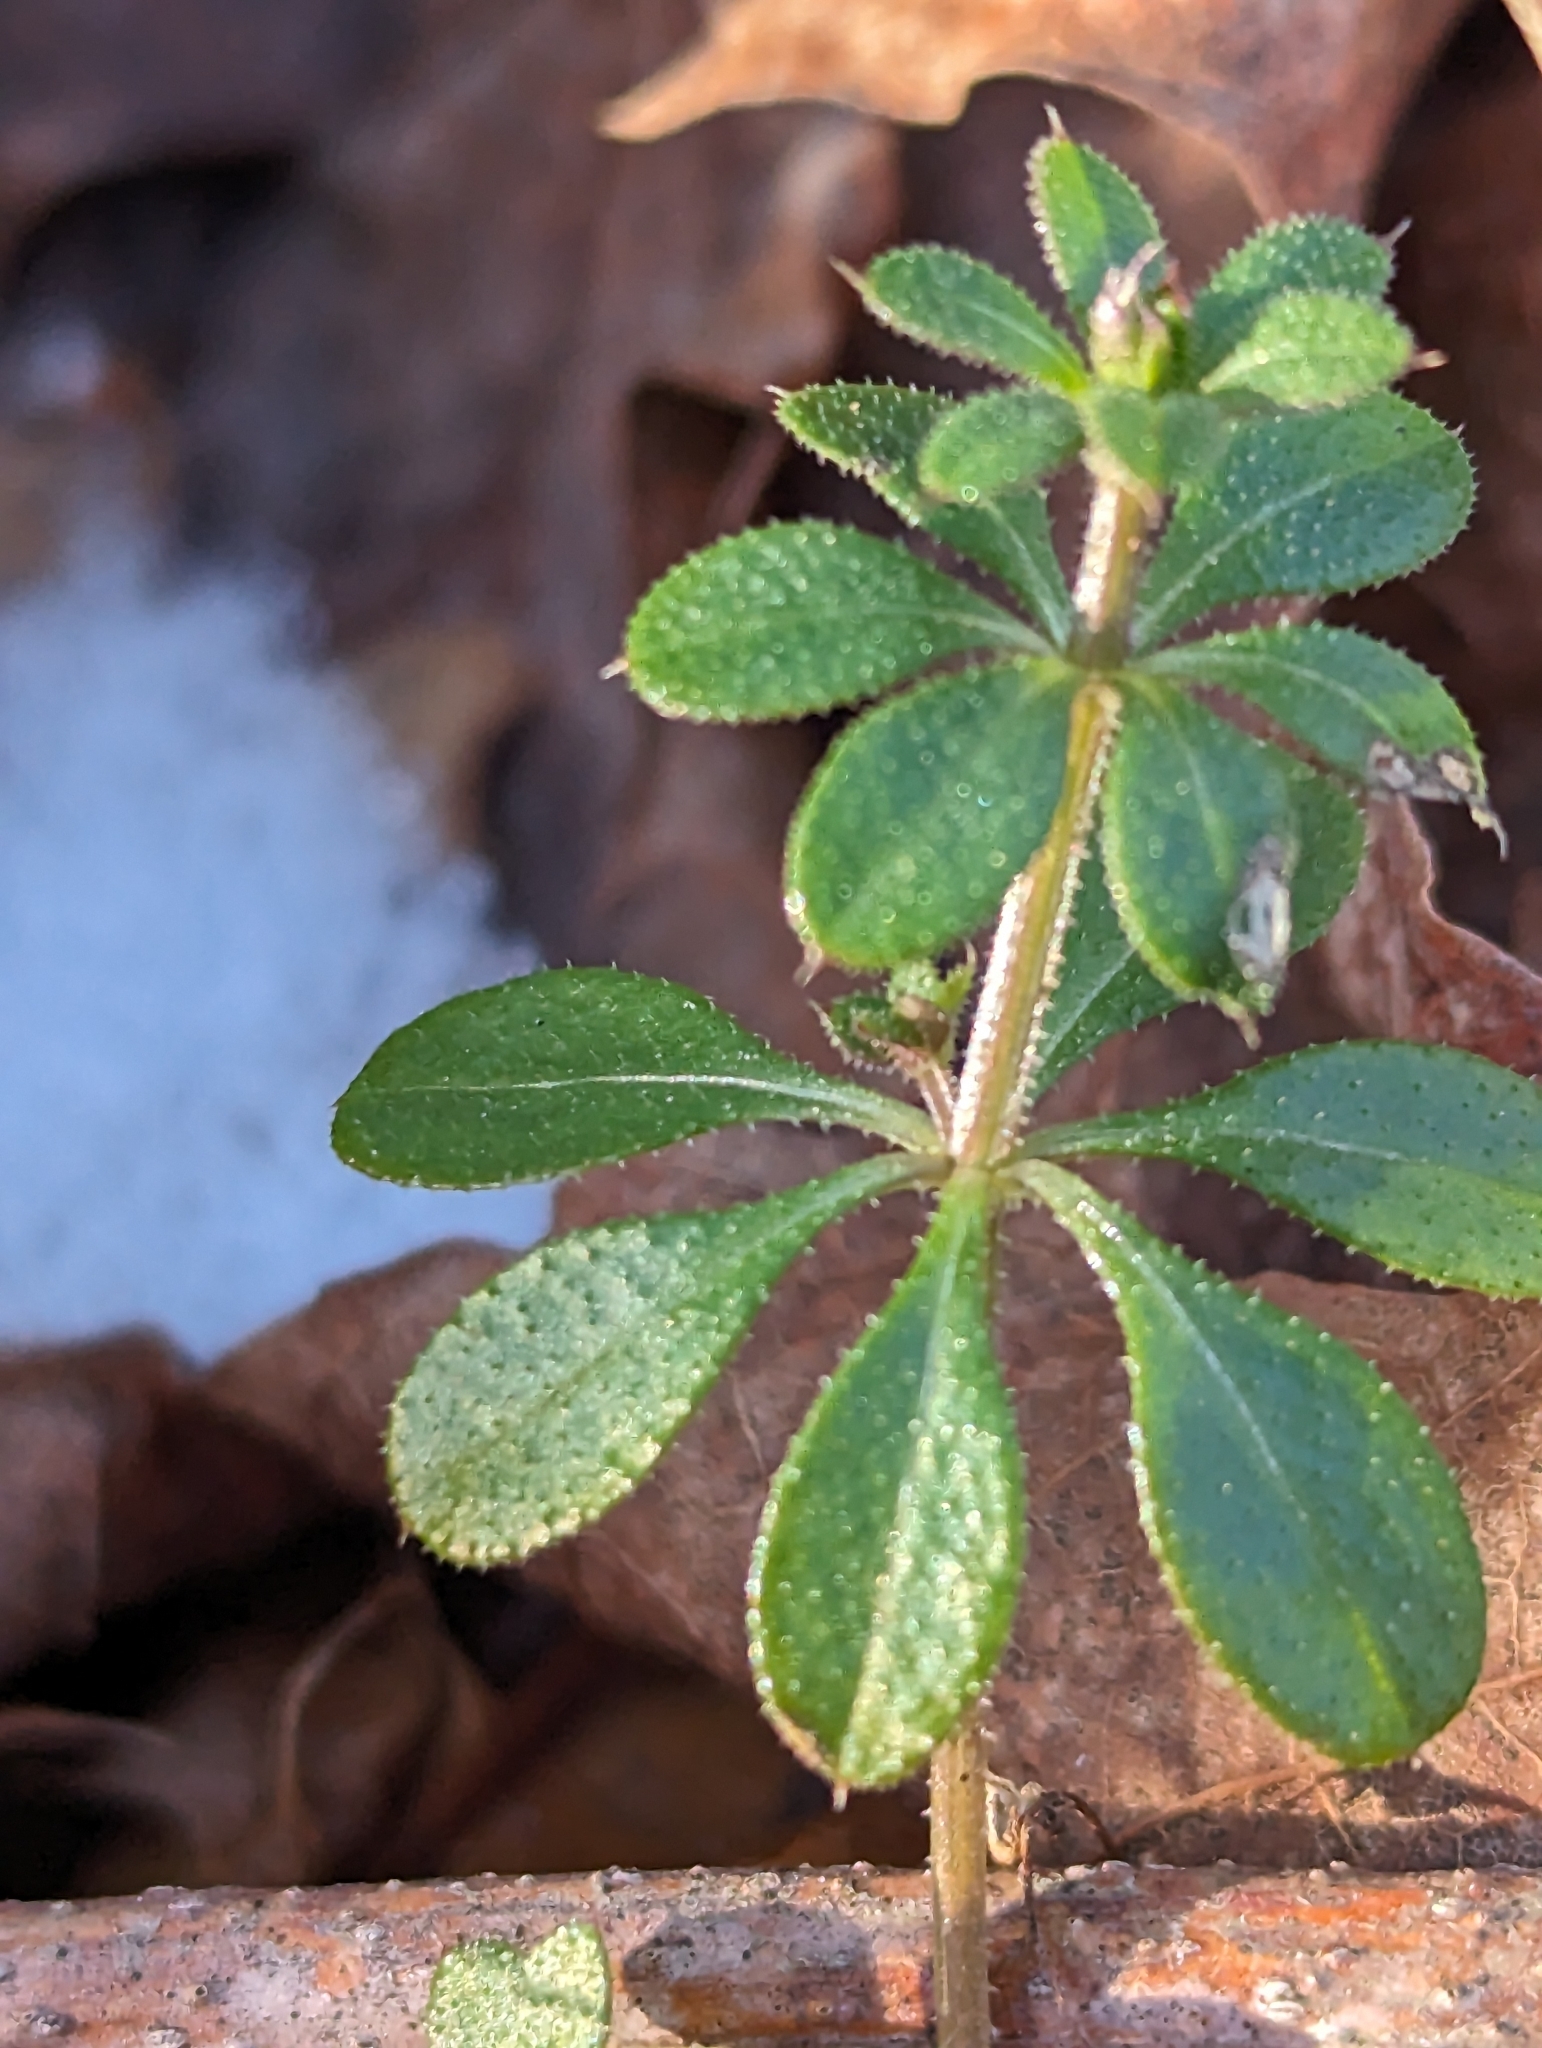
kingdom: Plantae
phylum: Tracheophyta
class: Magnoliopsida
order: Gentianales
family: Rubiaceae
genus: Galium
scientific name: Galium aparine
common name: Cleavers
